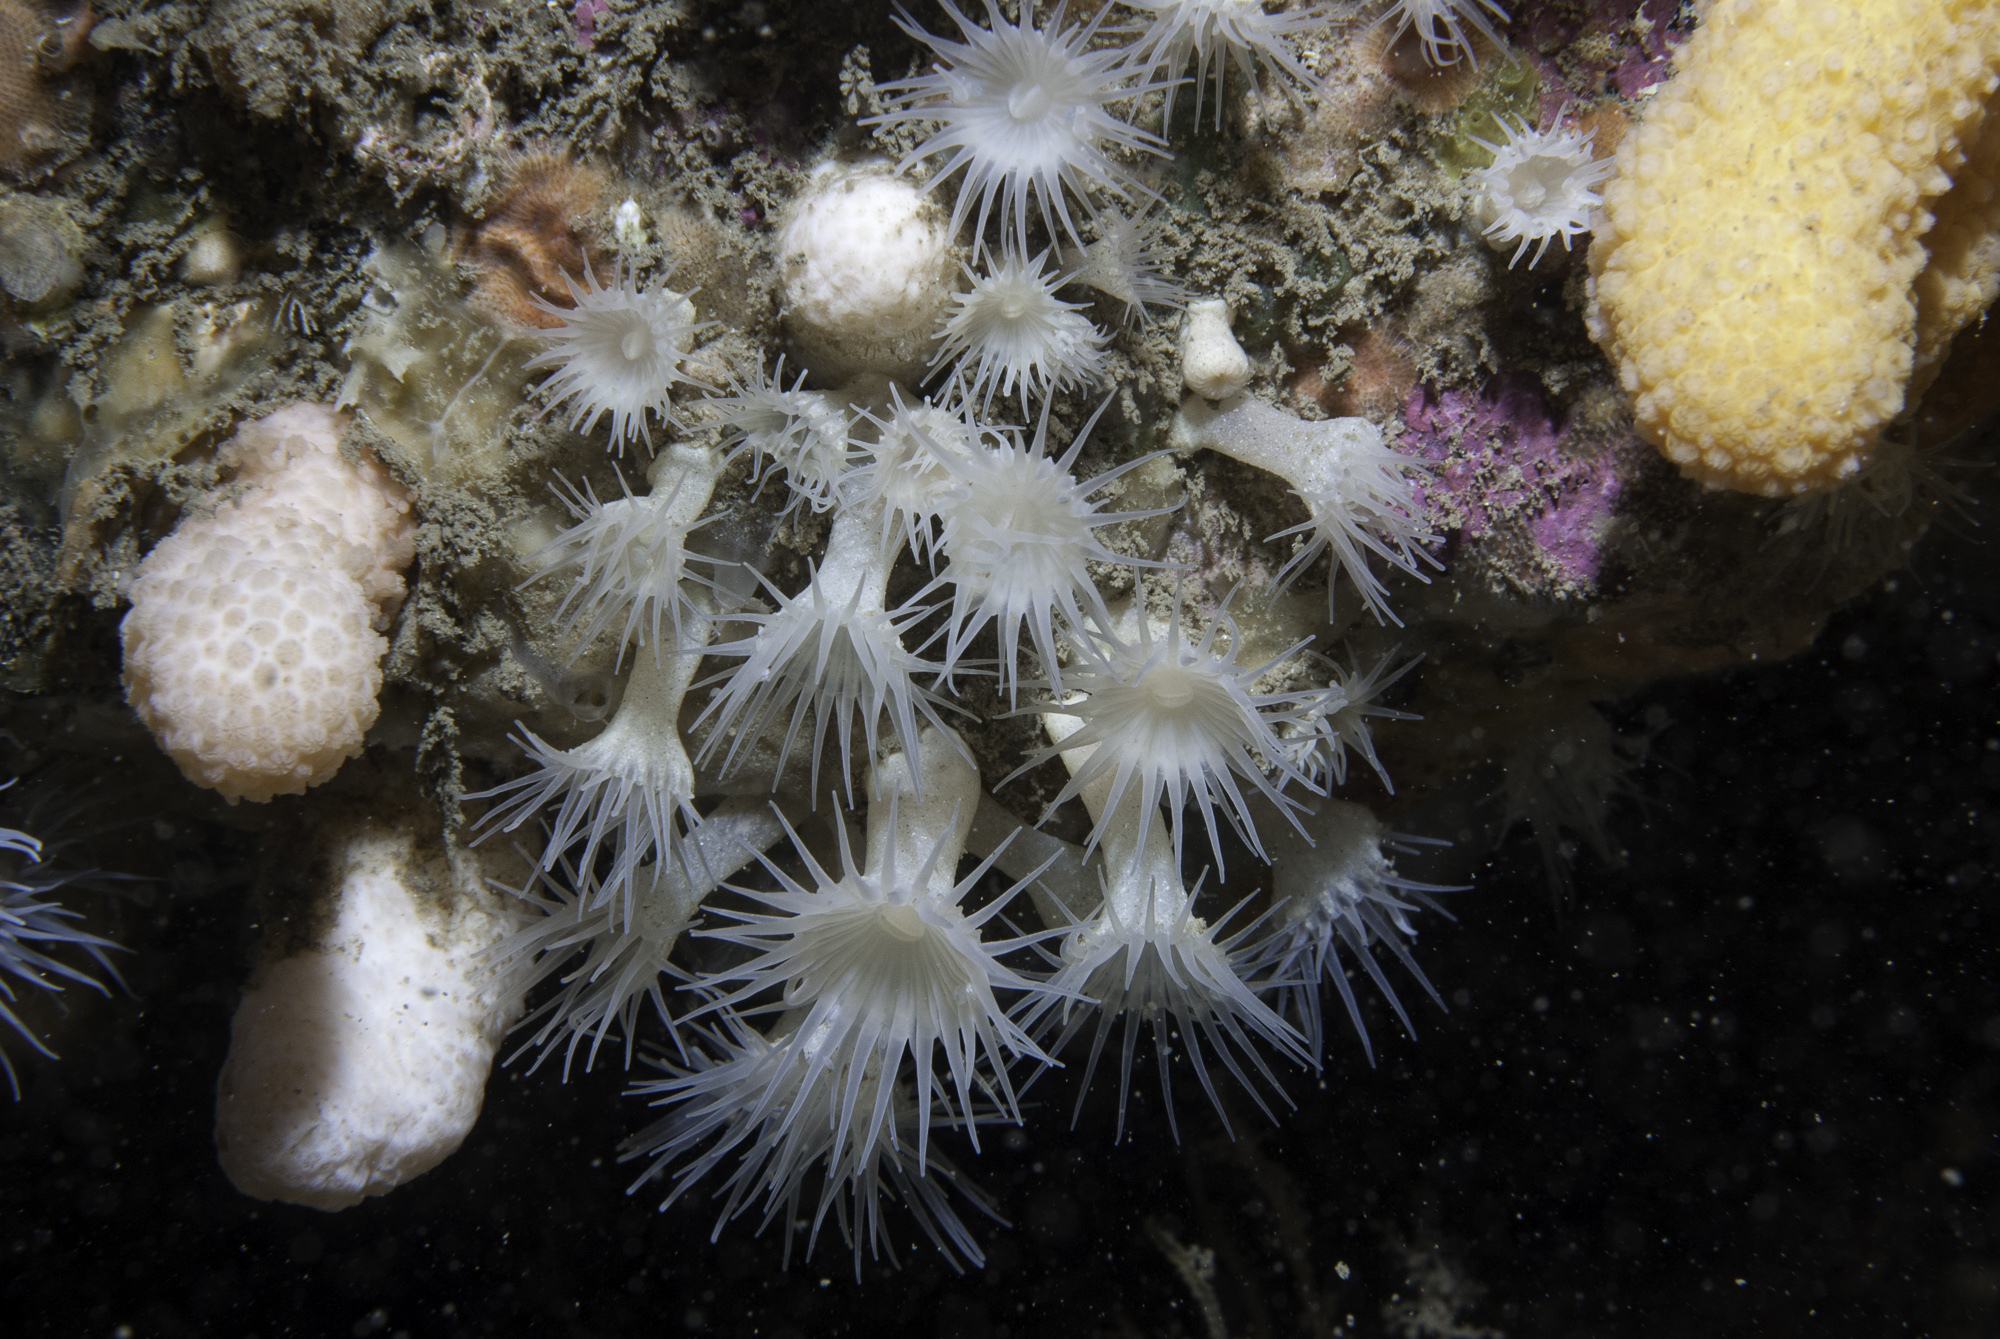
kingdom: Animalia
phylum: Cnidaria
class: Anthozoa
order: Zoantharia
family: Parazoanthidae
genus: Parazoanthus
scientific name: Parazoanthus anguicomus
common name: White cluster anemone
